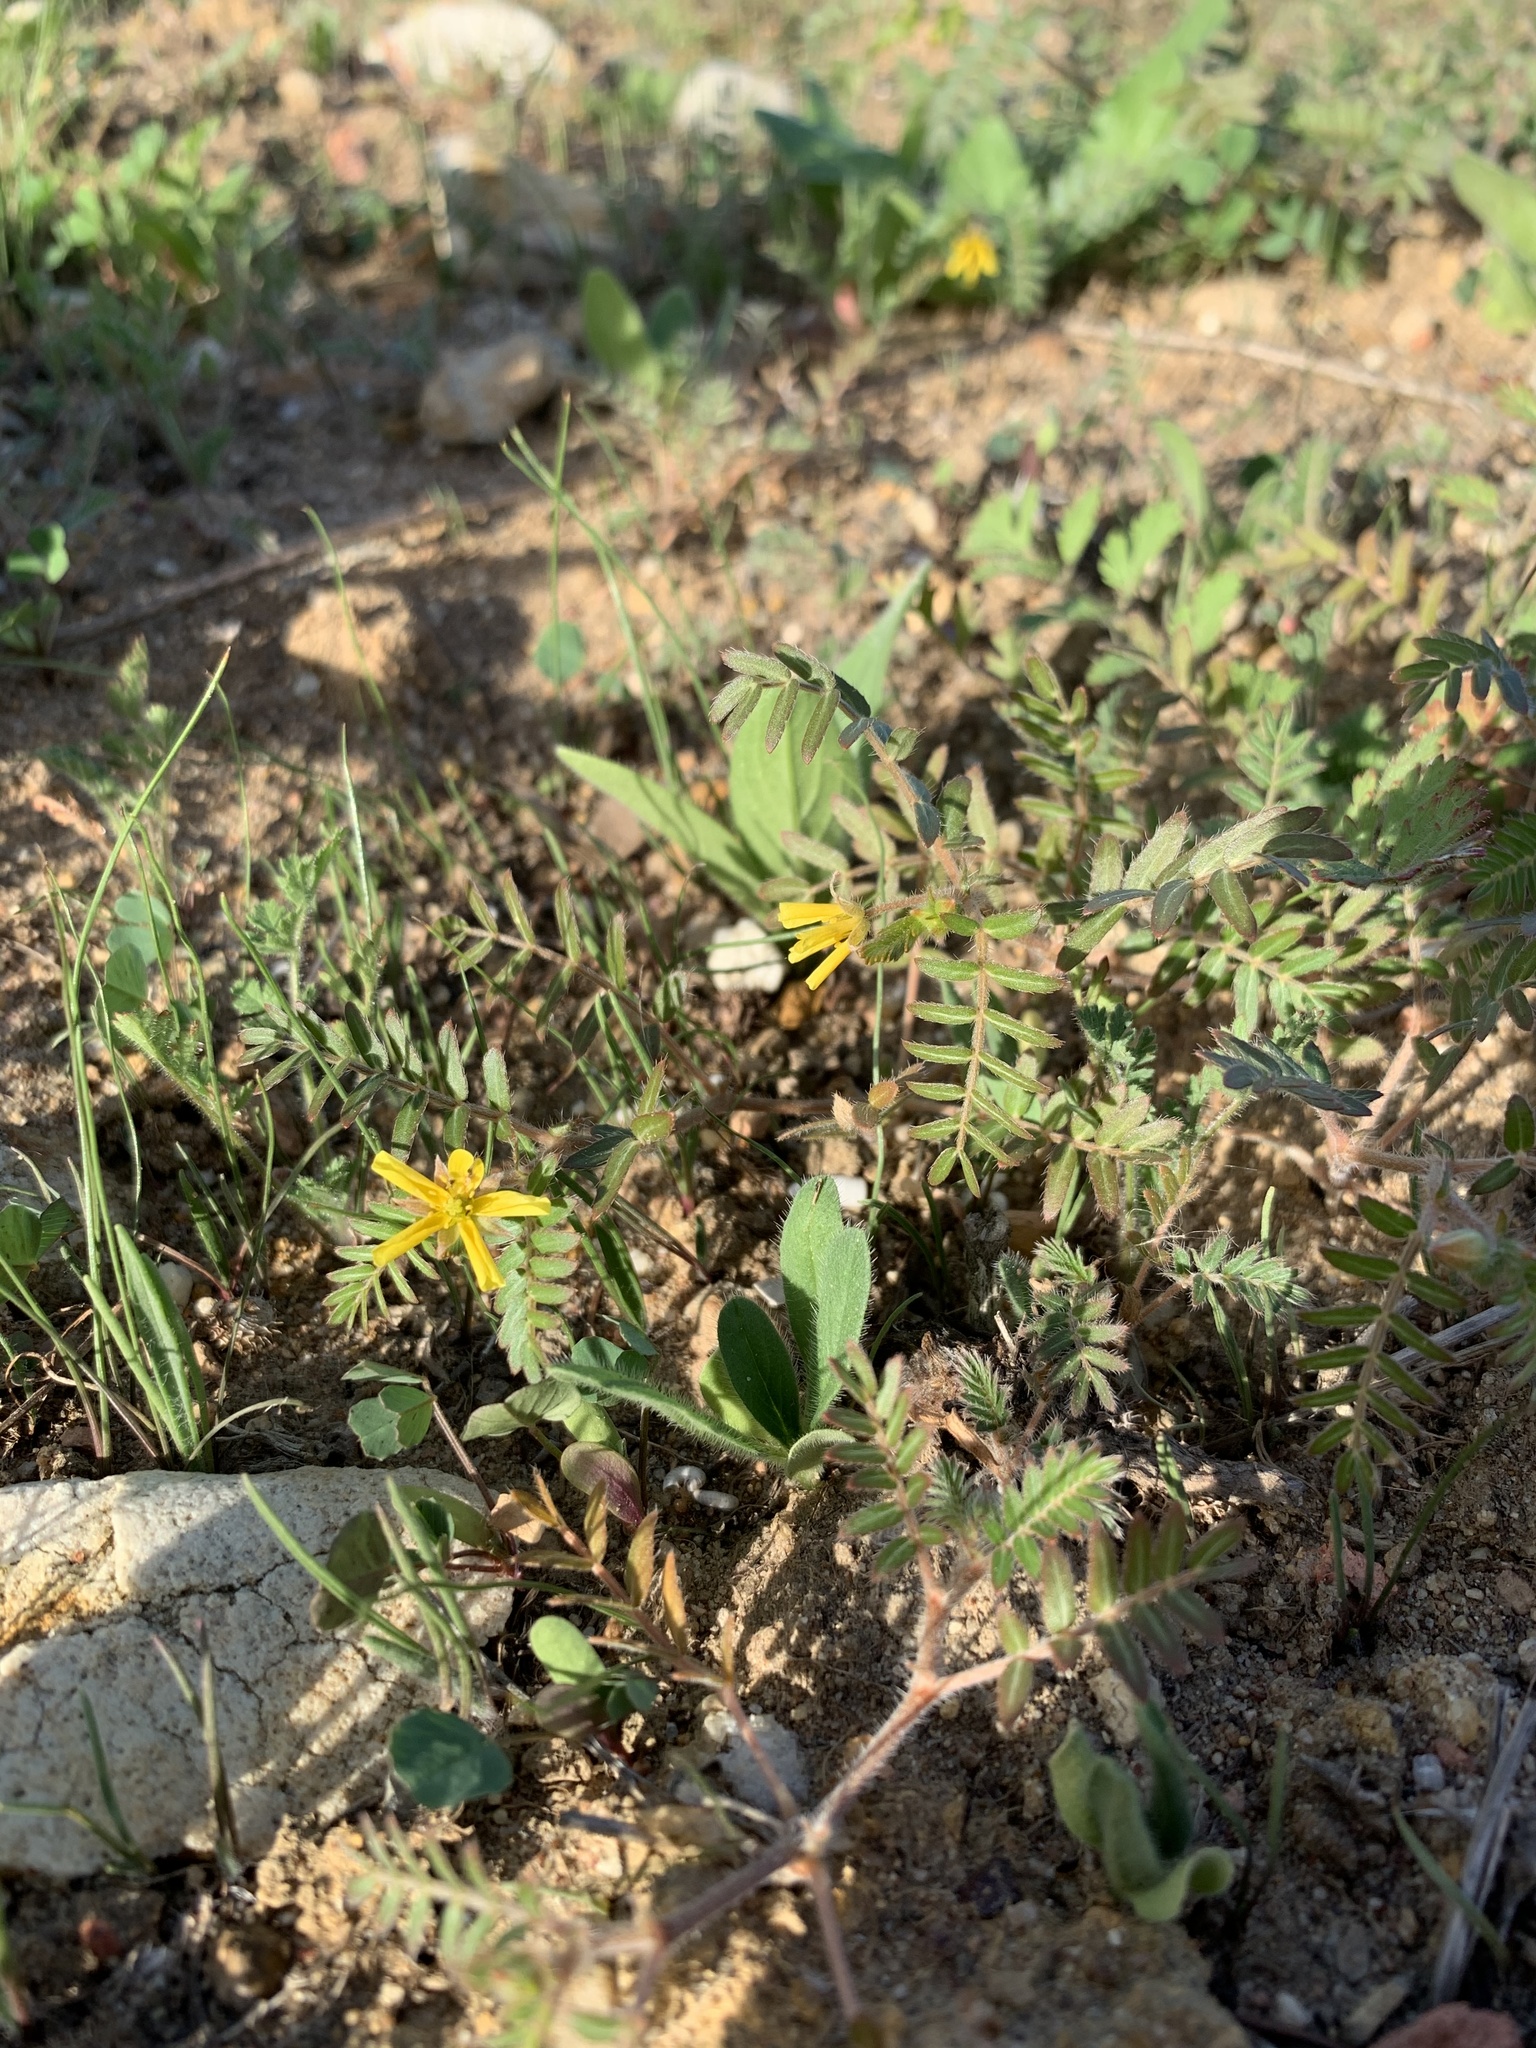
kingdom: Plantae
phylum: Tracheophyta
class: Magnoliopsida
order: Zygophyllales
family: Zygophyllaceae
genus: Tribulus
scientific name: Tribulus terrestris
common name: Puncturevine
